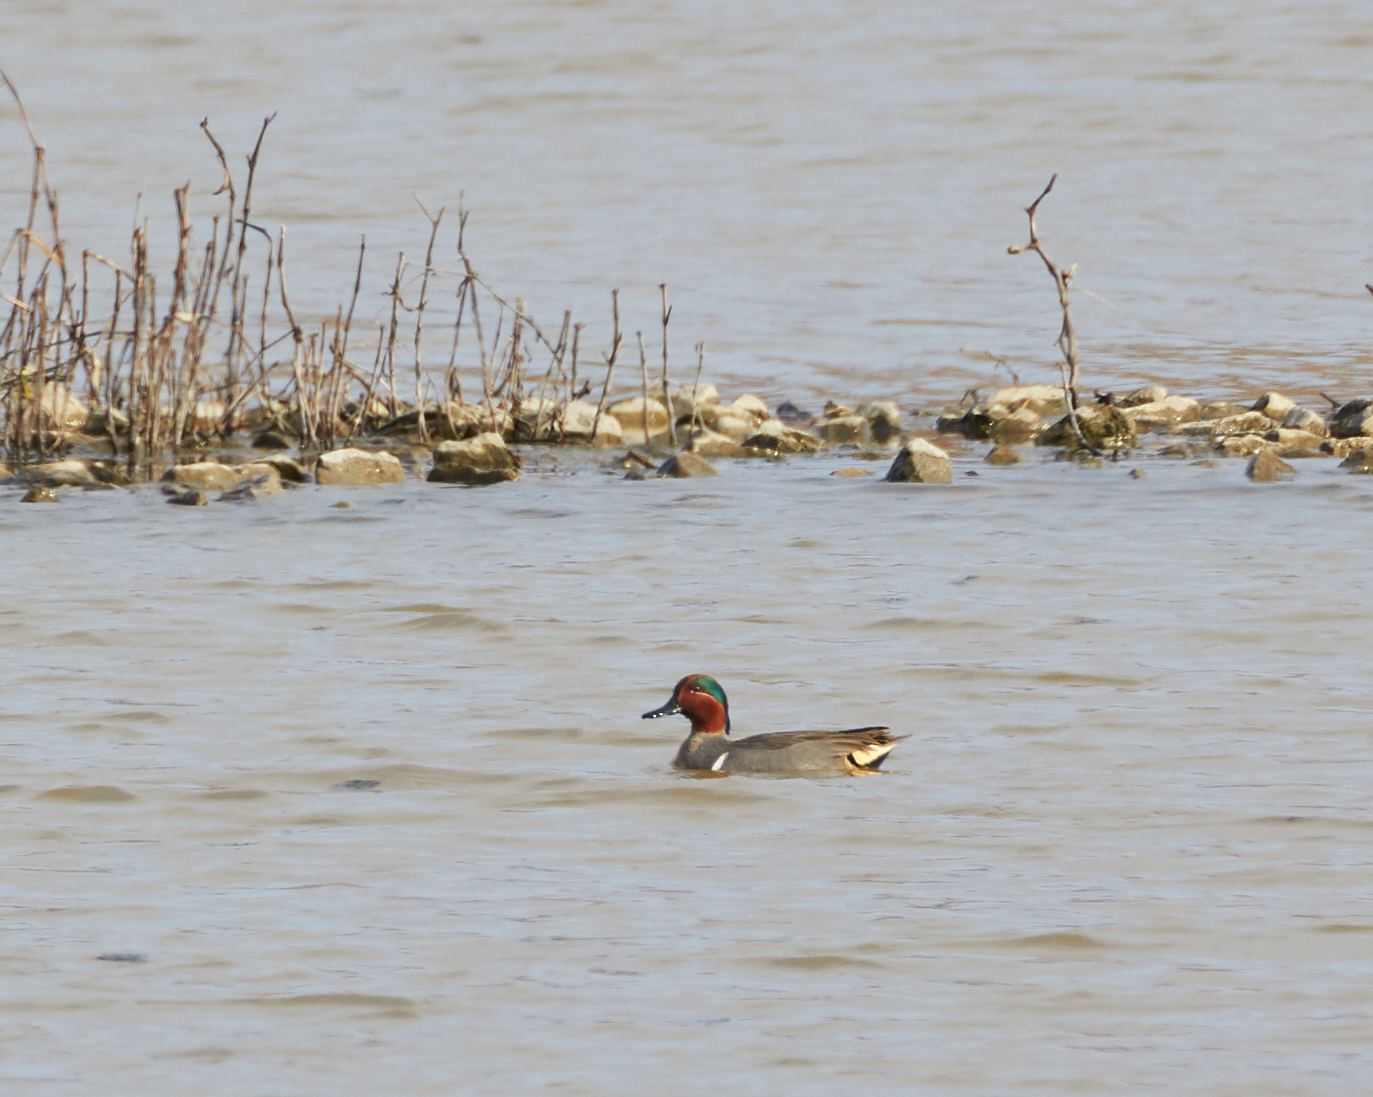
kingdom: Animalia
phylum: Chordata
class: Aves
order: Anseriformes
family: Anatidae
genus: Anas
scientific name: Anas crecca
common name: Eurasian teal
